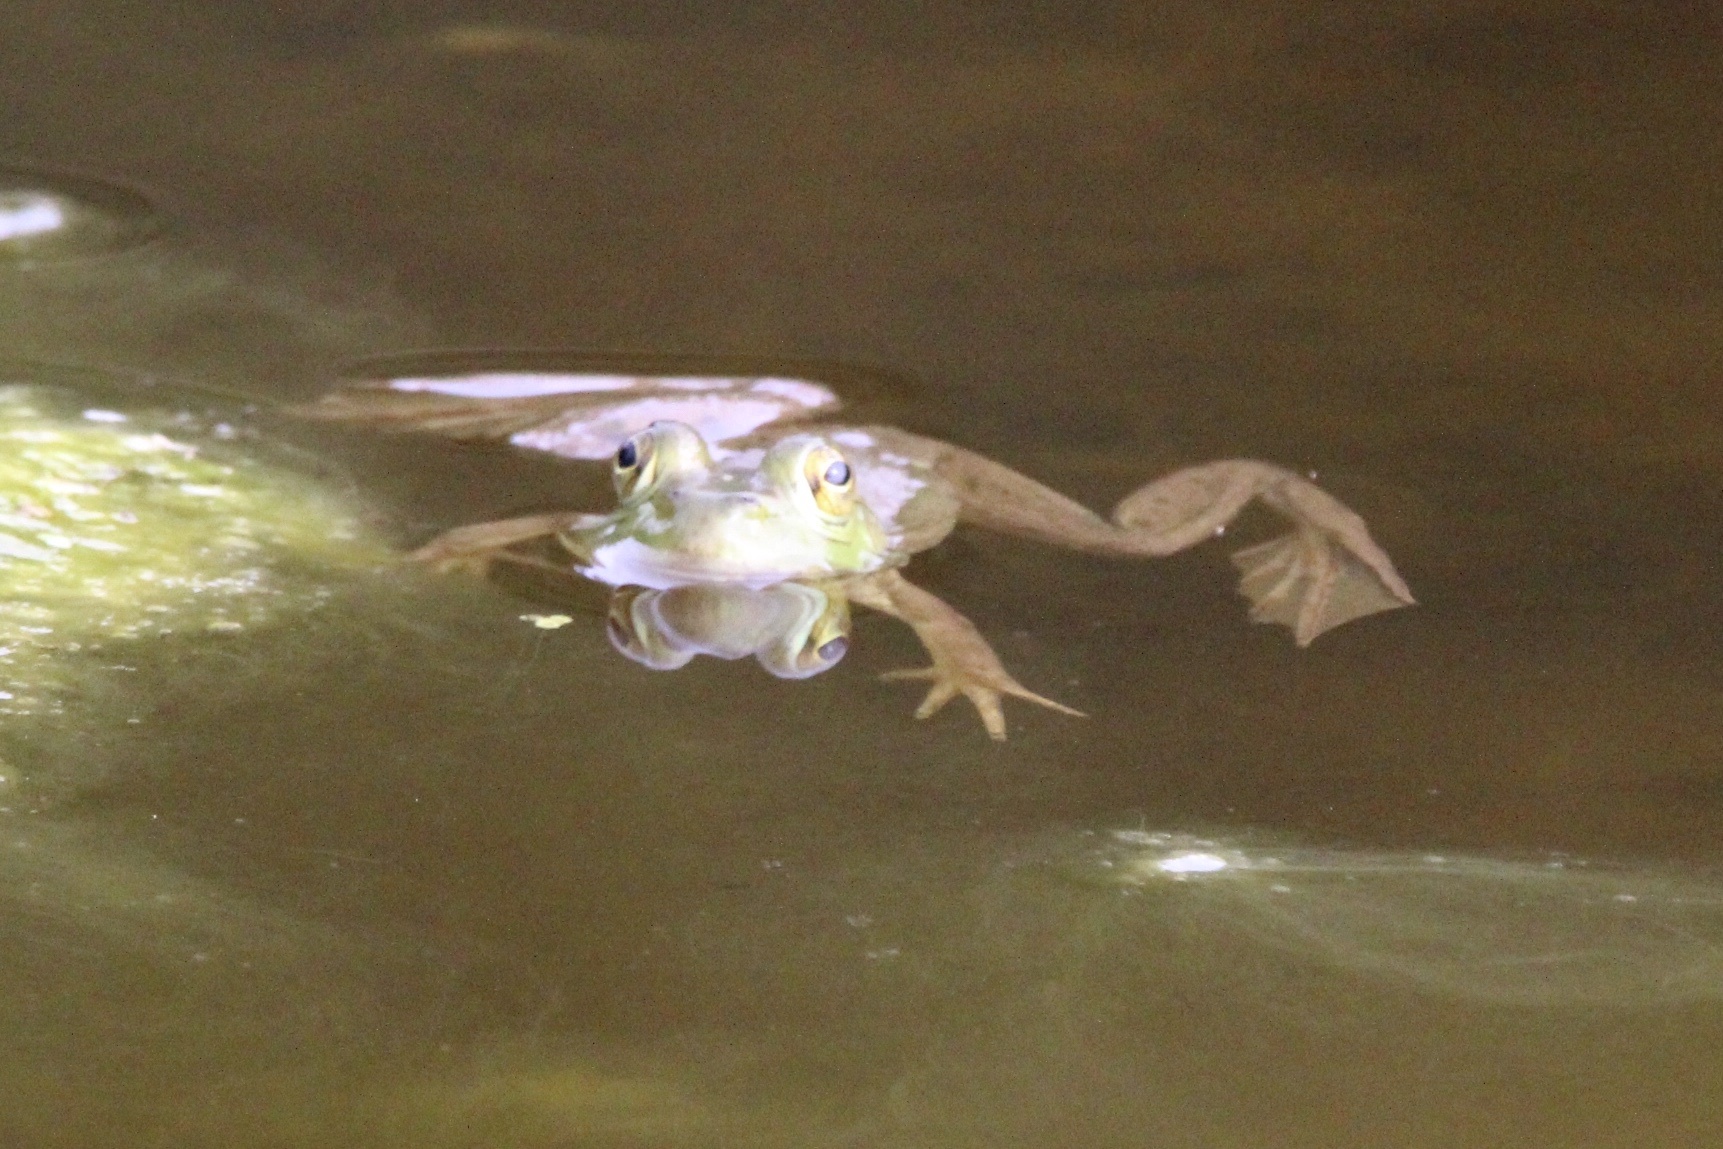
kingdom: Animalia
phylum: Chordata
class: Amphibia
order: Anura
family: Ranidae
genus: Lithobates
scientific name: Lithobates catesbeianus
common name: American bullfrog
